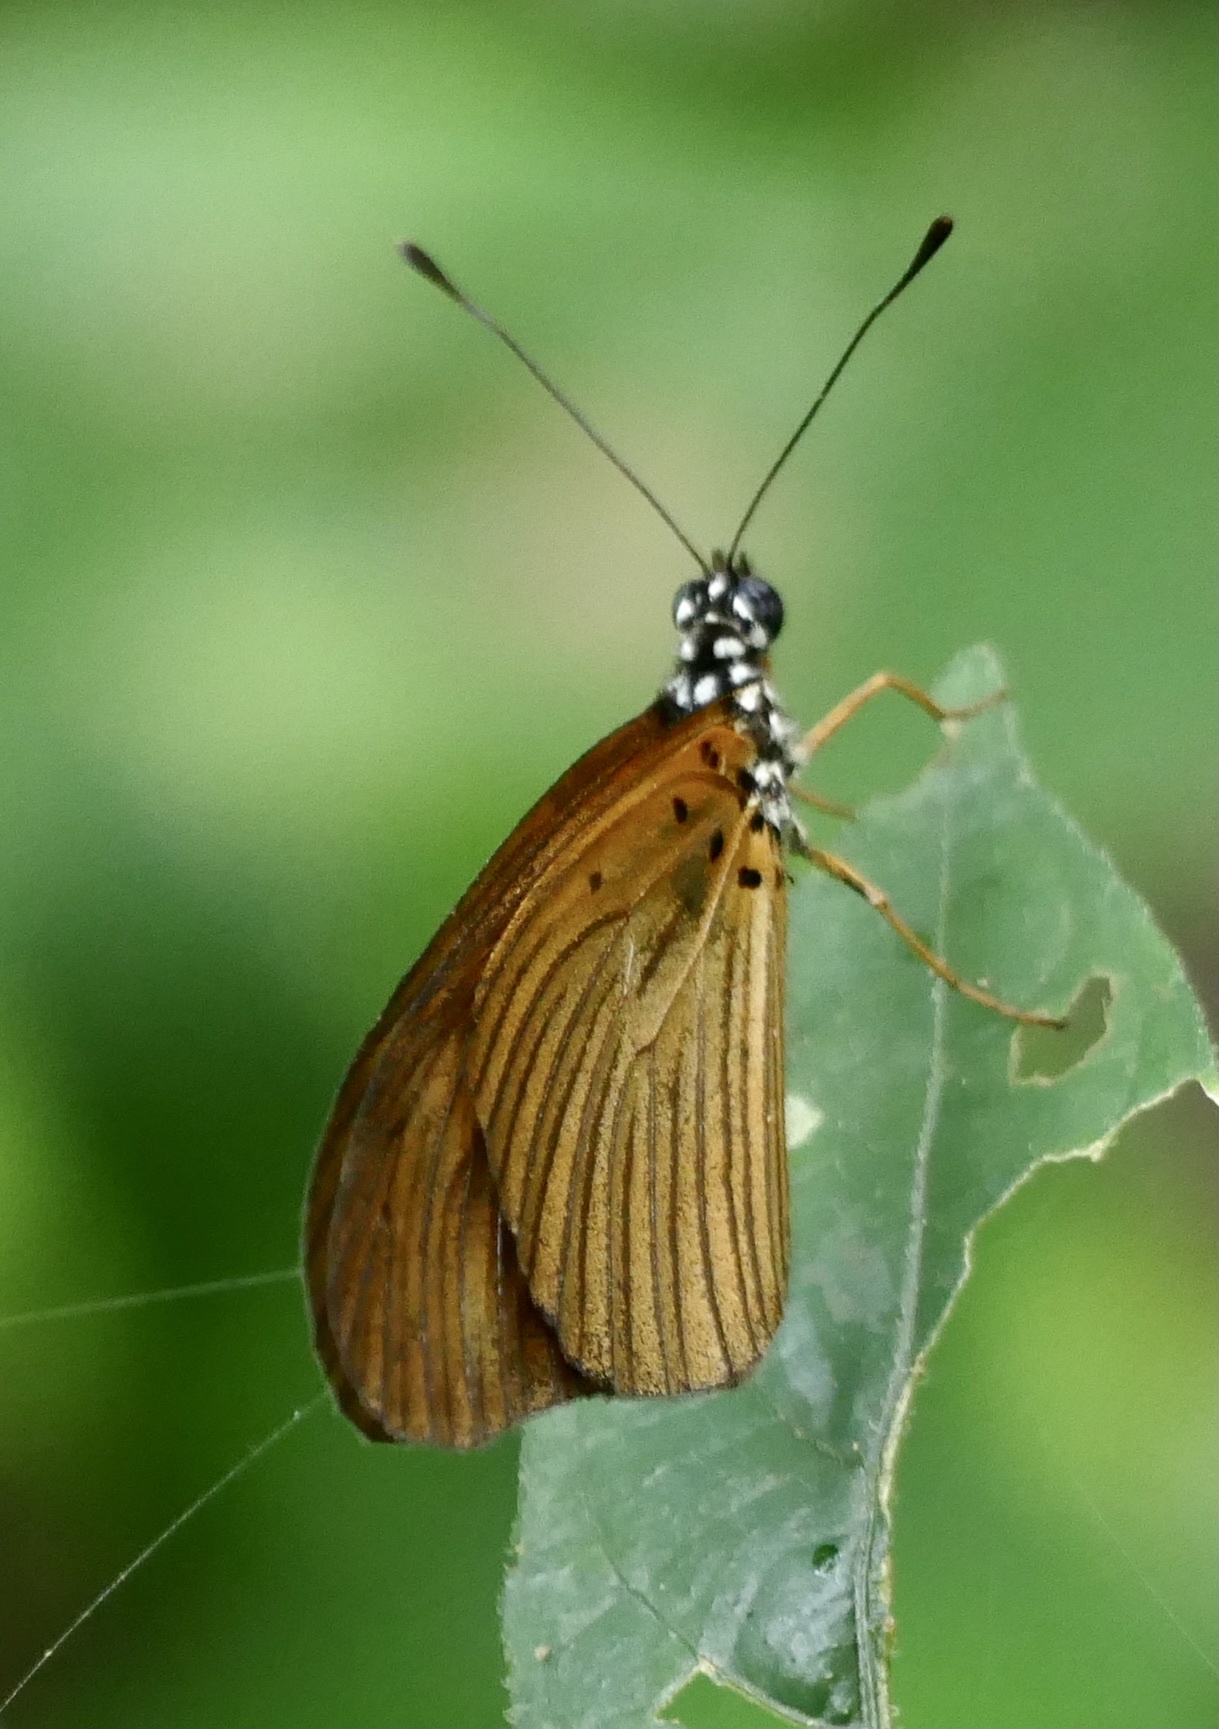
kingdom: Animalia
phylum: Arthropoda
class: Insecta
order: Lepidoptera
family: Nymphalidae
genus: Acraea
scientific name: Acraea Telchinia lycoa
